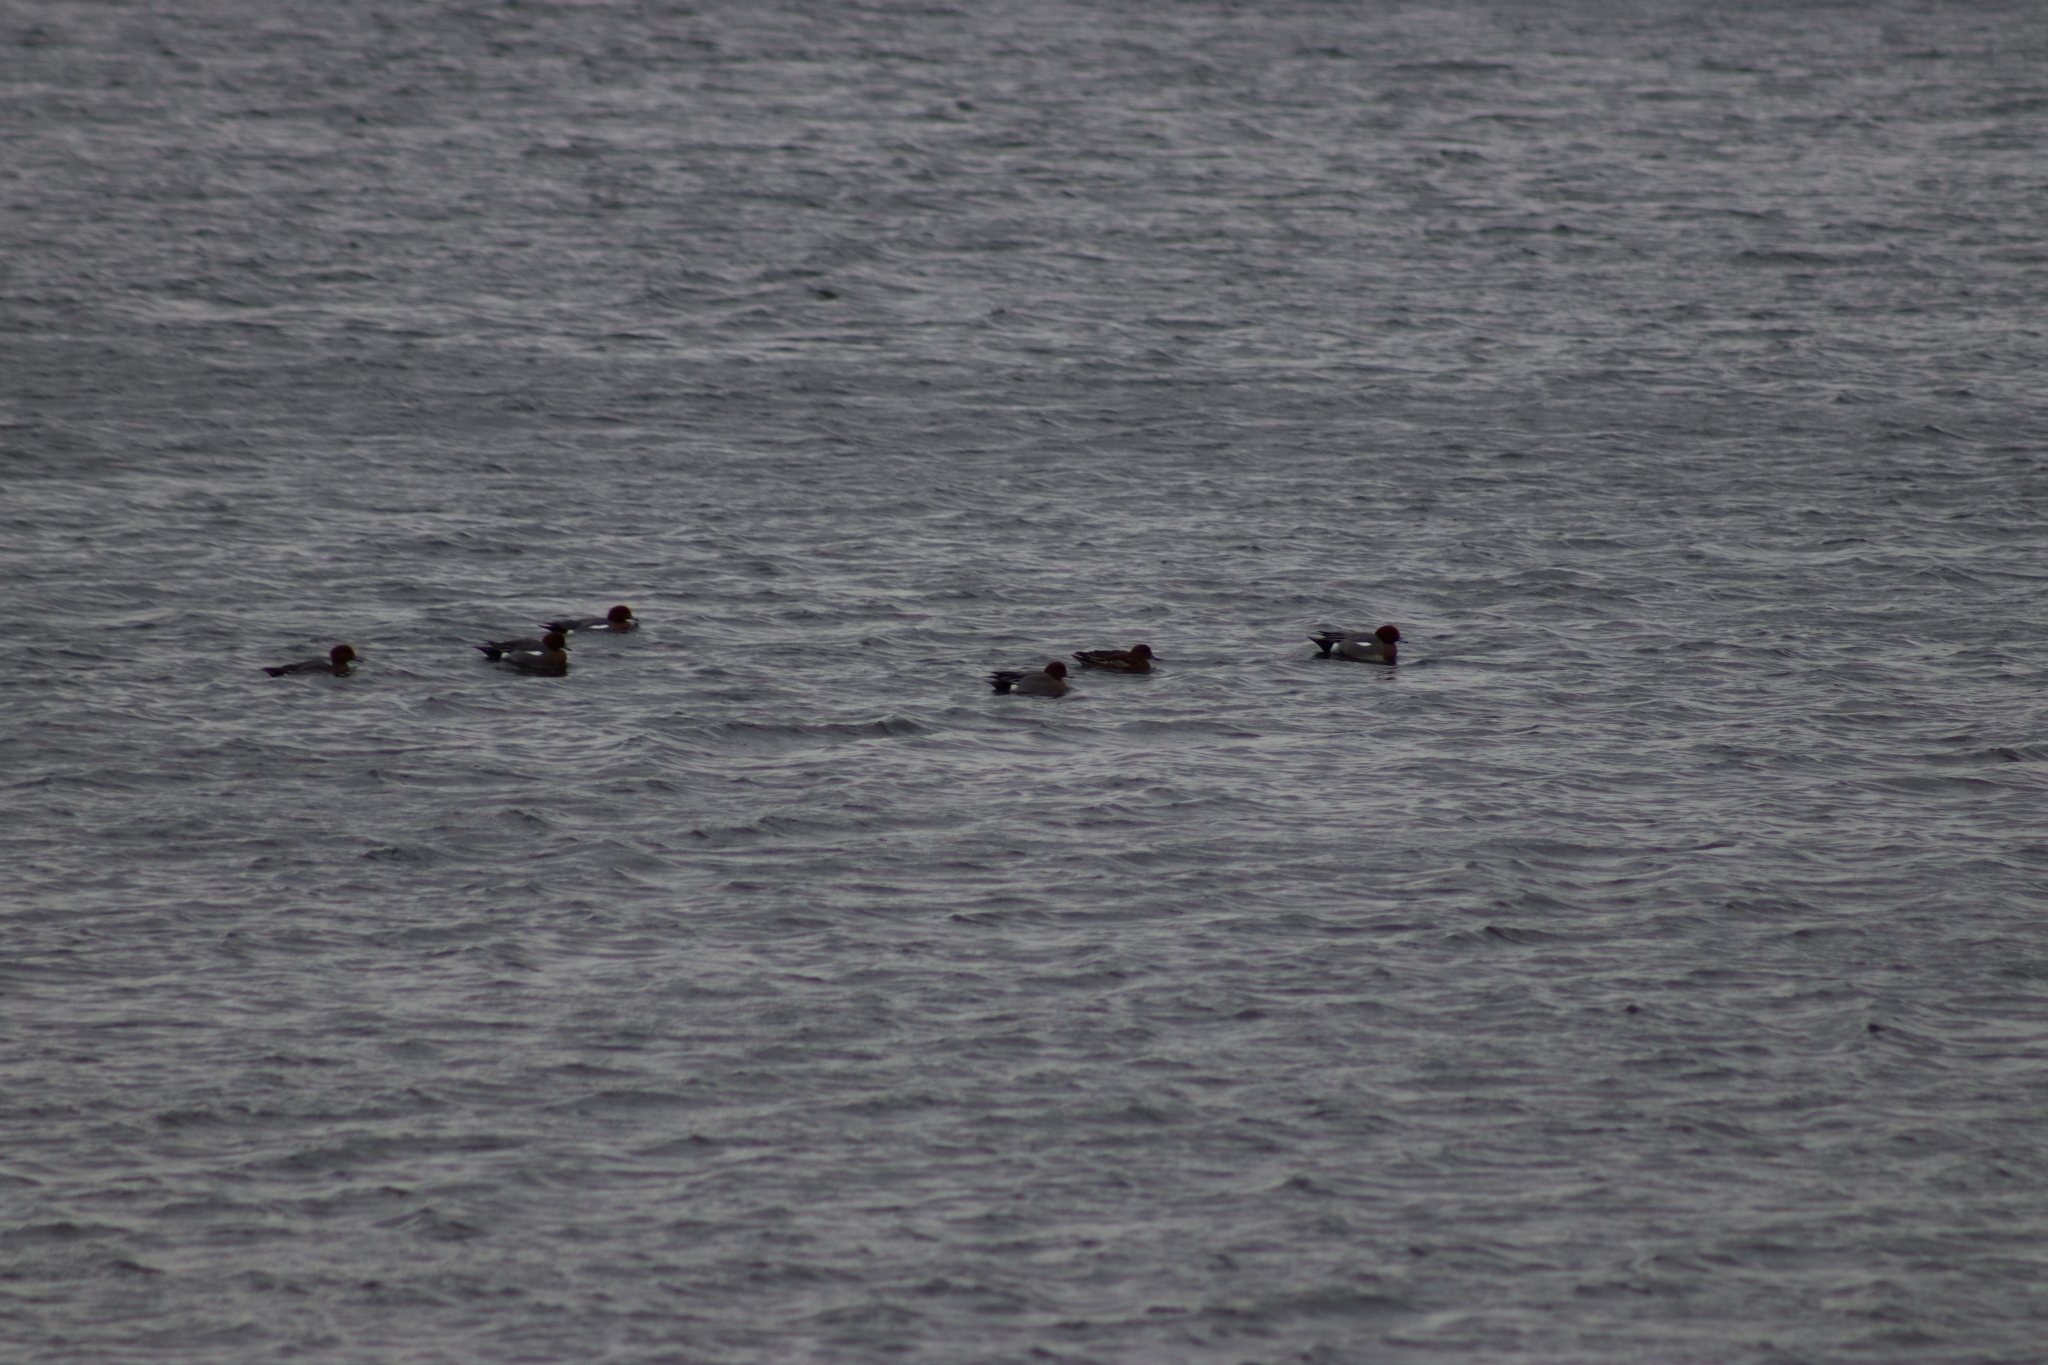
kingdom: Animalia
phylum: Chordata
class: Aves
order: Anseriformes
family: Anatidae
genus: Mareca
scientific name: Mareca penelope
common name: Eurasian wigeon
